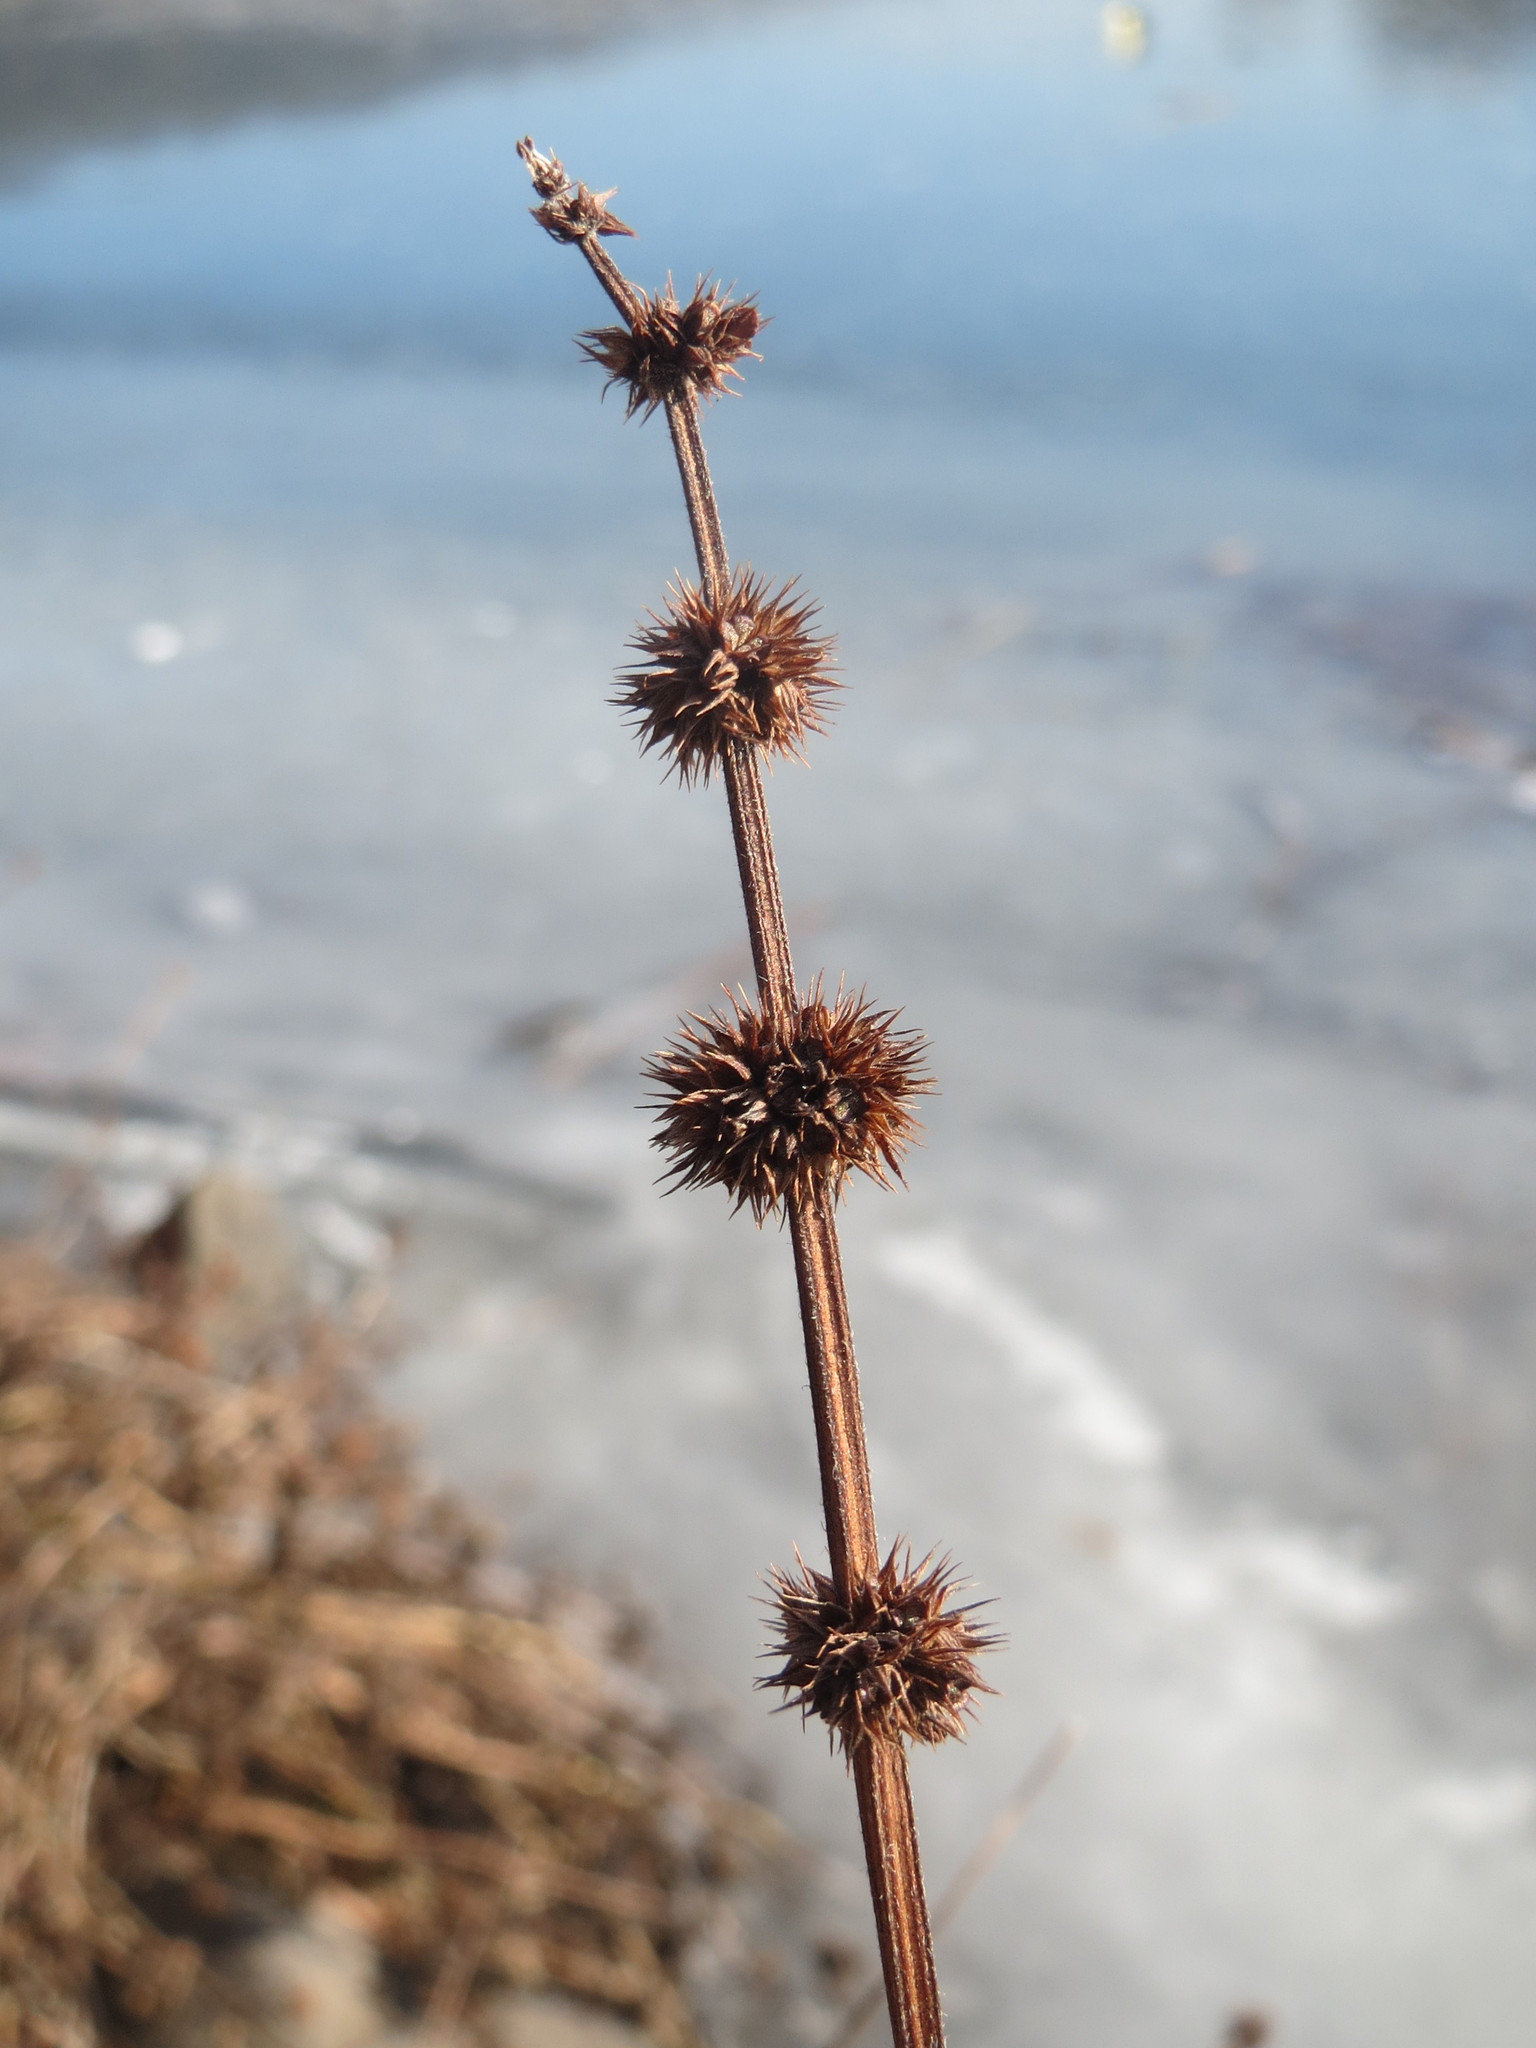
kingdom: Plantae
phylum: Tracheophyta
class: Magnoliopsida
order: Lamiales
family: Lamiaceae
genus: Lycopus
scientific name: Lycopus europaeus
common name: European bugleweed
